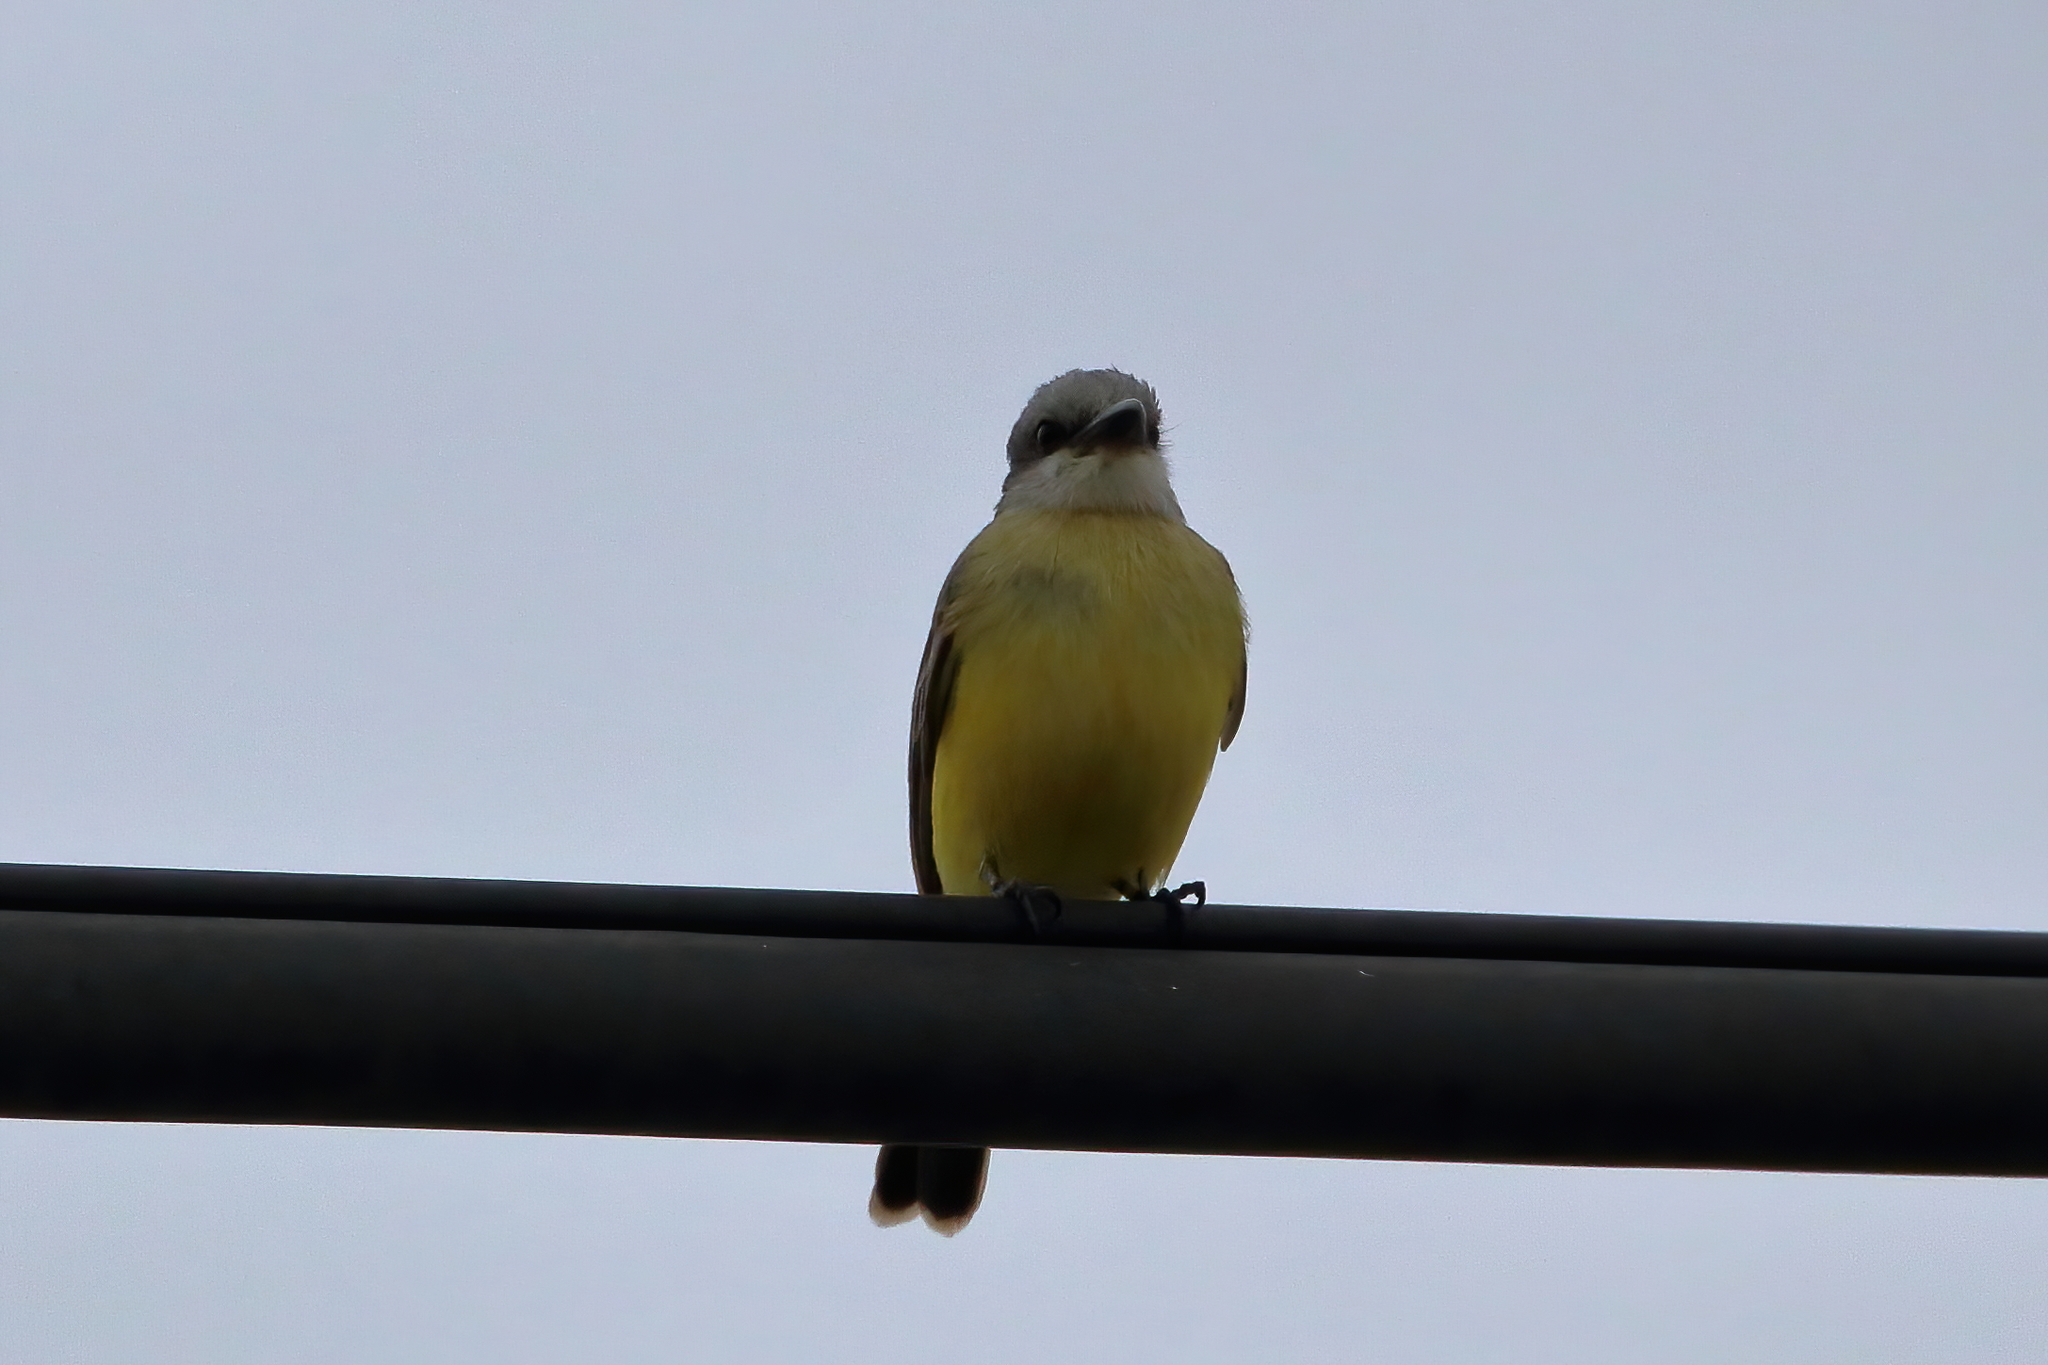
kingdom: Animalia
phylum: Chordata
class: Aves
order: Passeriformes
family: Tyrannidae
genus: Tyrannus
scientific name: Tyrannus
